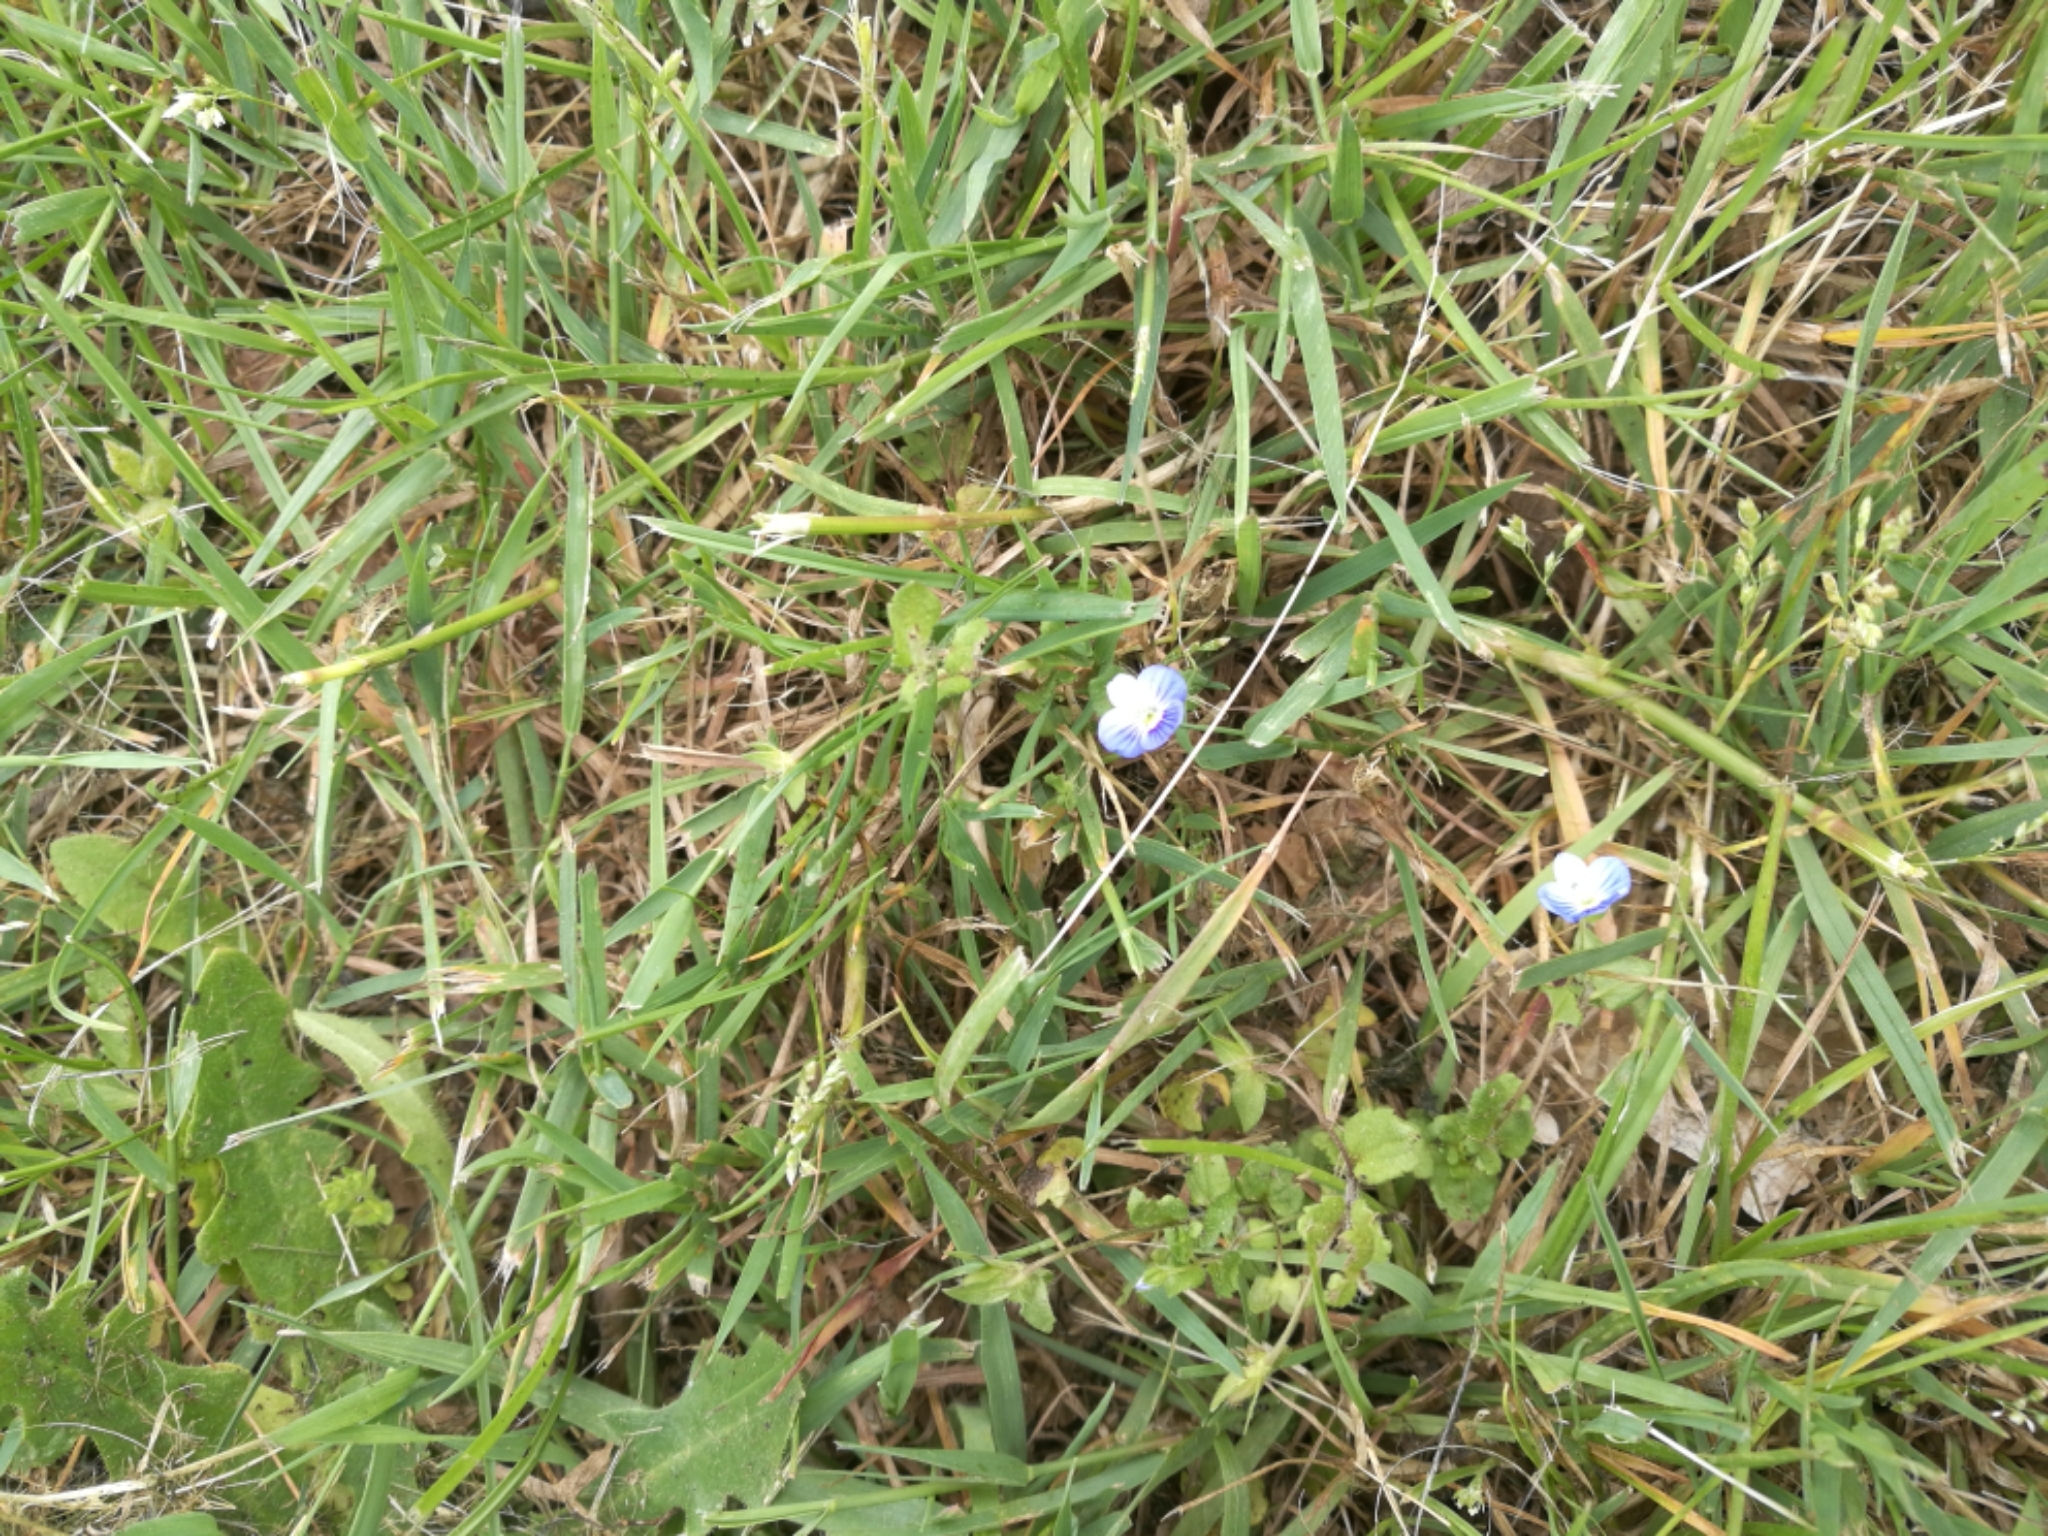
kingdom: Plantae
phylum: Tracheophyta
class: Magnoliopsida
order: Lamiales
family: Plantaginaceae
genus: Veronica
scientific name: Veronica persica
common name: Common field-speedwell
